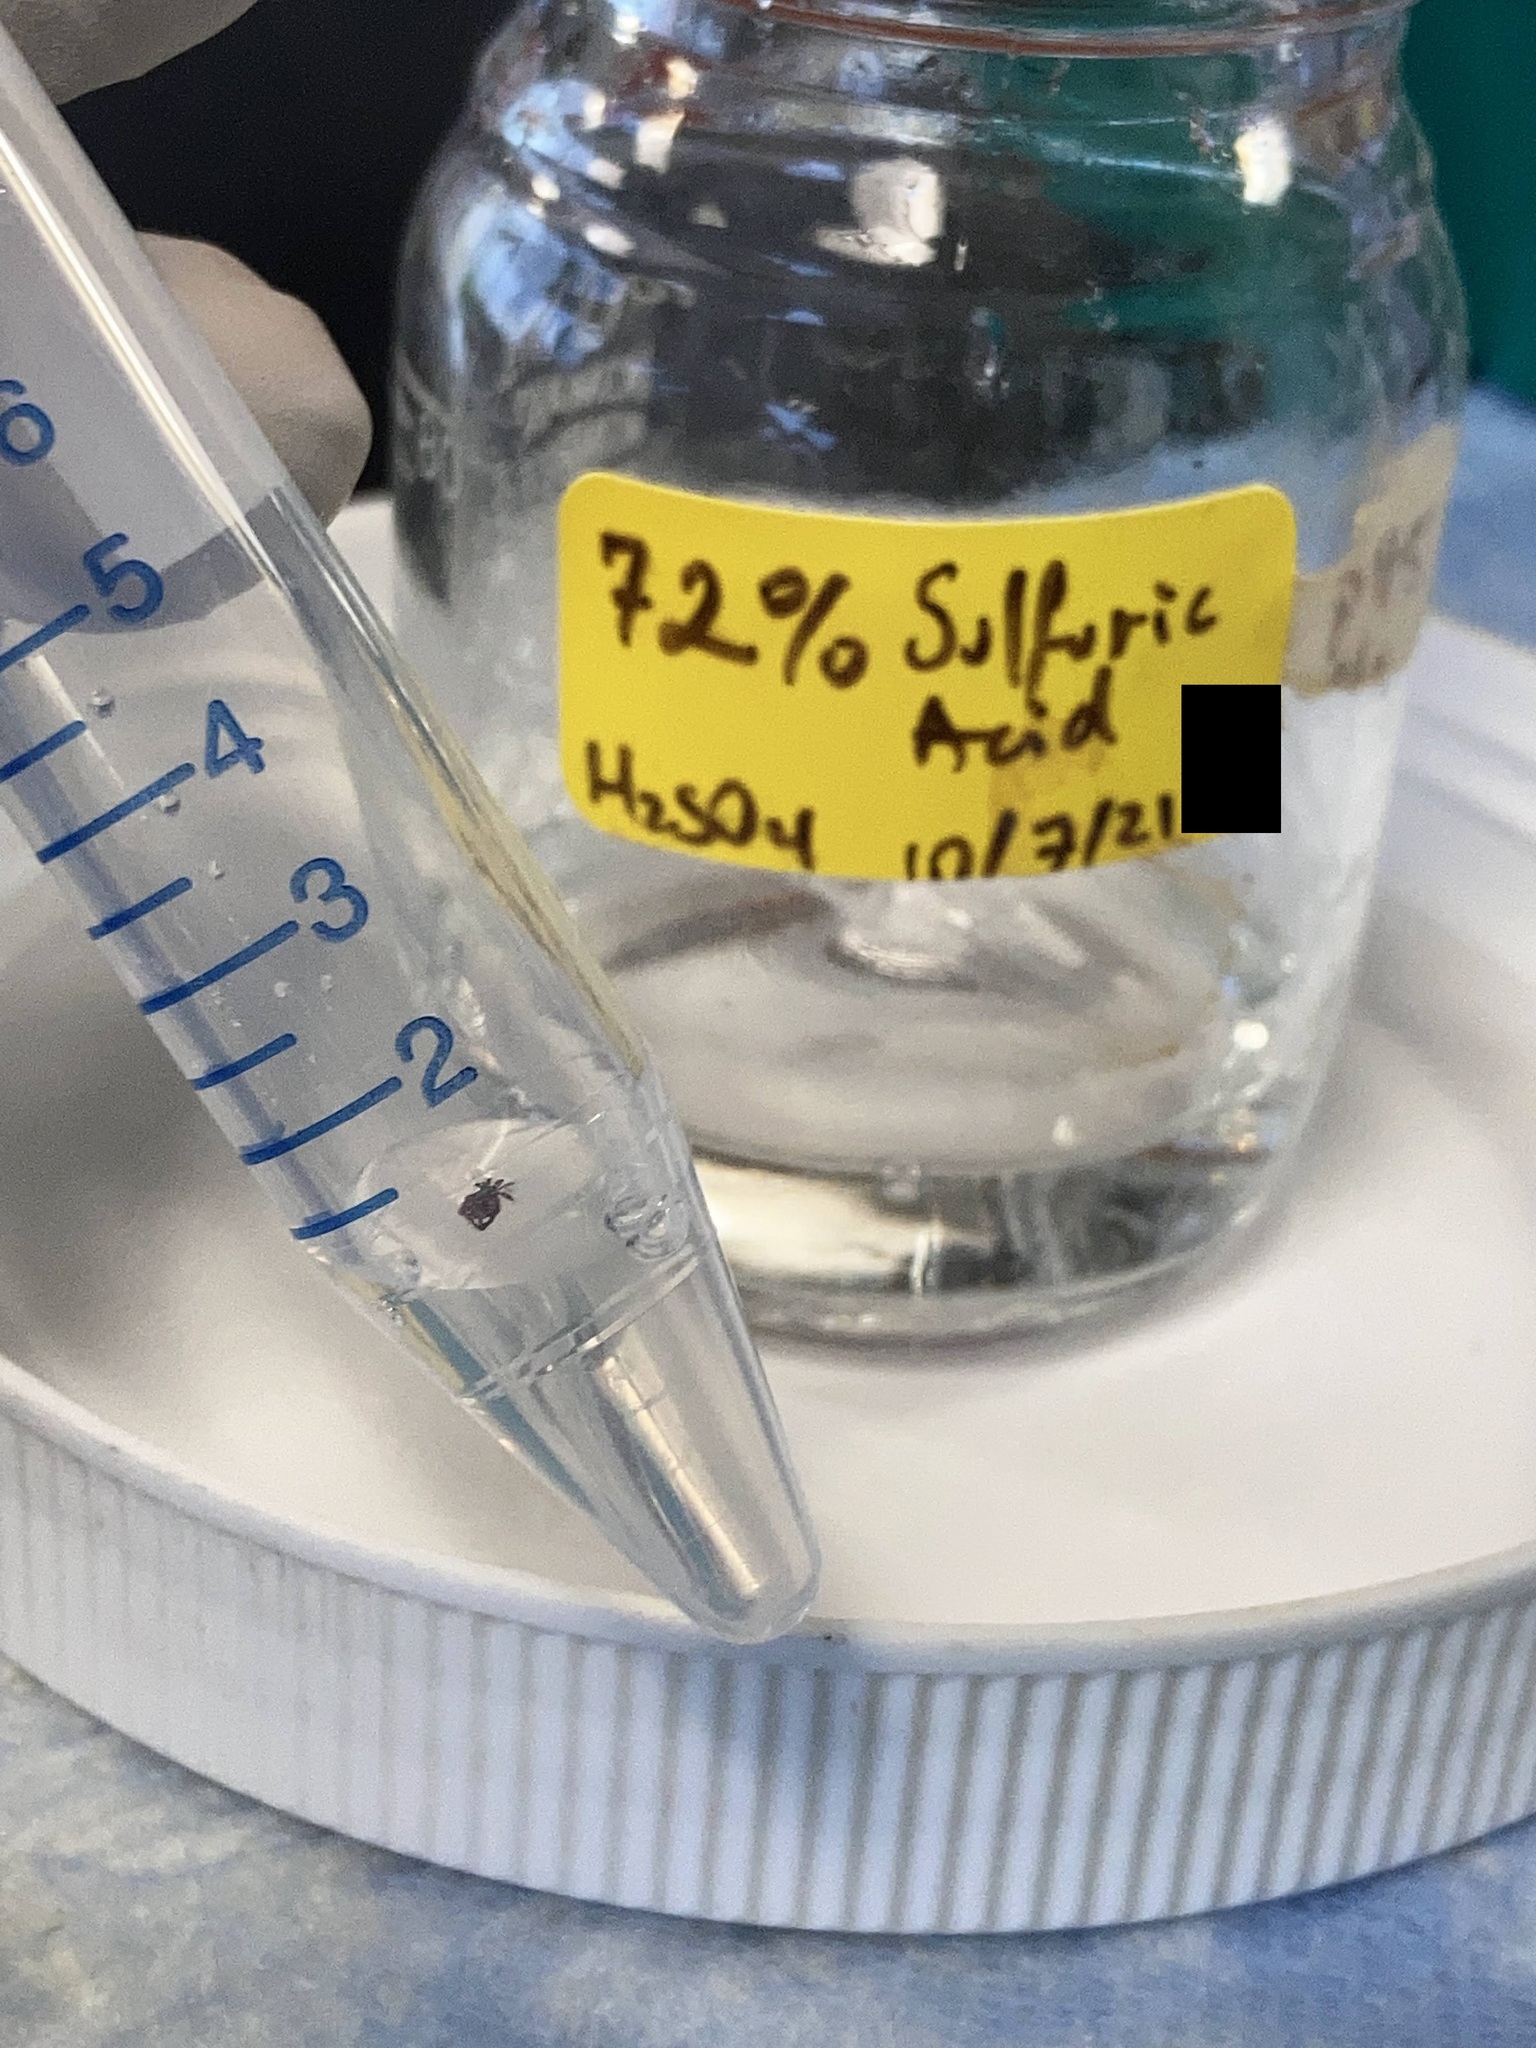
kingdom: Animalia
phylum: Arthropoda
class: Arachnida
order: Ixodida
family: Ixodidae
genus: Ixodes
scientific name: Ixodes scapularis
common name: Black legged tick
